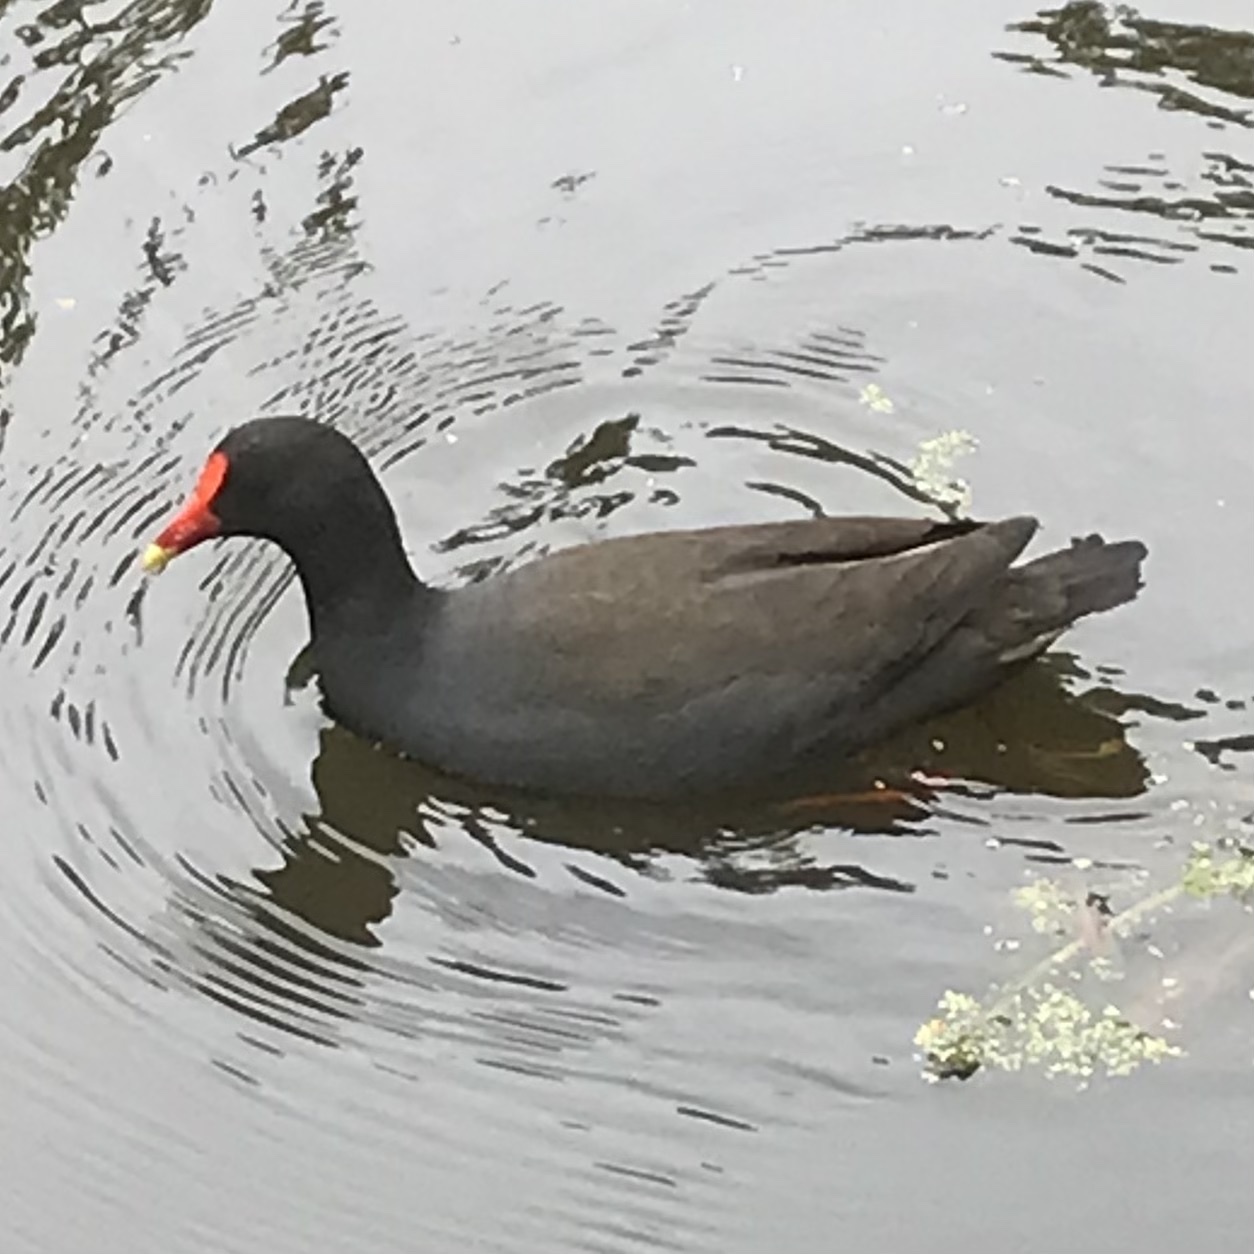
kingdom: Animalia
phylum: Chordata
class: Aves
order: Gruiformes
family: Rallidae
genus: Gallinula
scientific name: Gallinula tenebrosa
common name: Dusky moorhen
